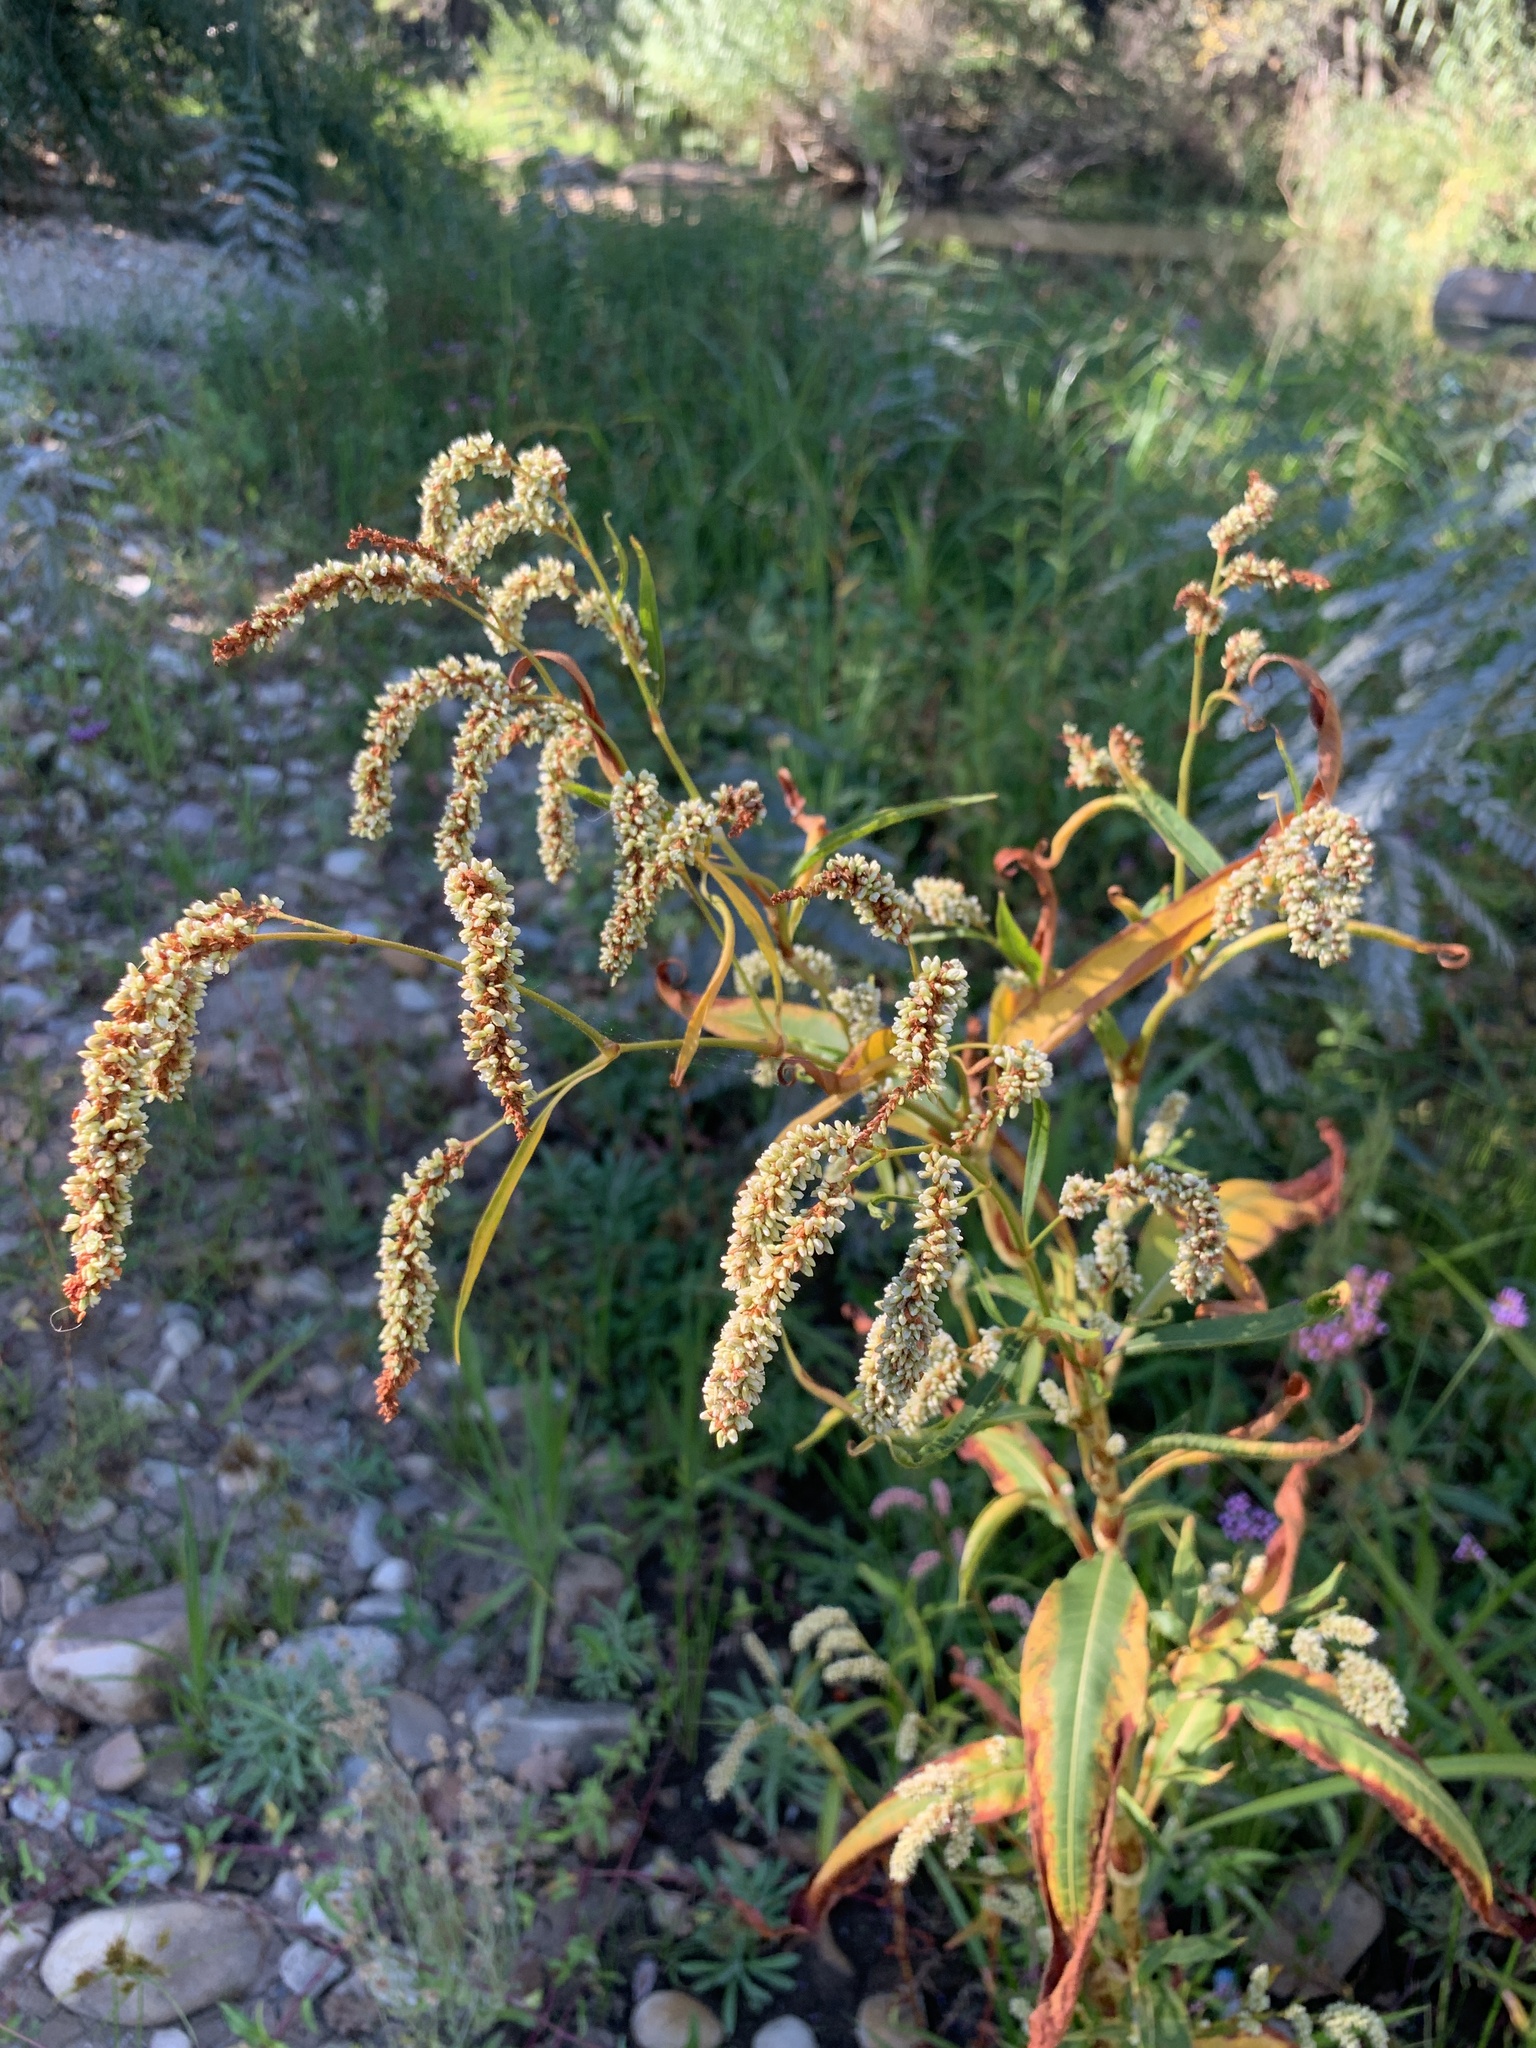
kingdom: Plantae
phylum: Tracheophyta
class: Magnoliopsida
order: Caryophyllales
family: Polygonaceae
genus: Persicaria
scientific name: Persicaria lapathifolia
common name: Curlytop knotweed
